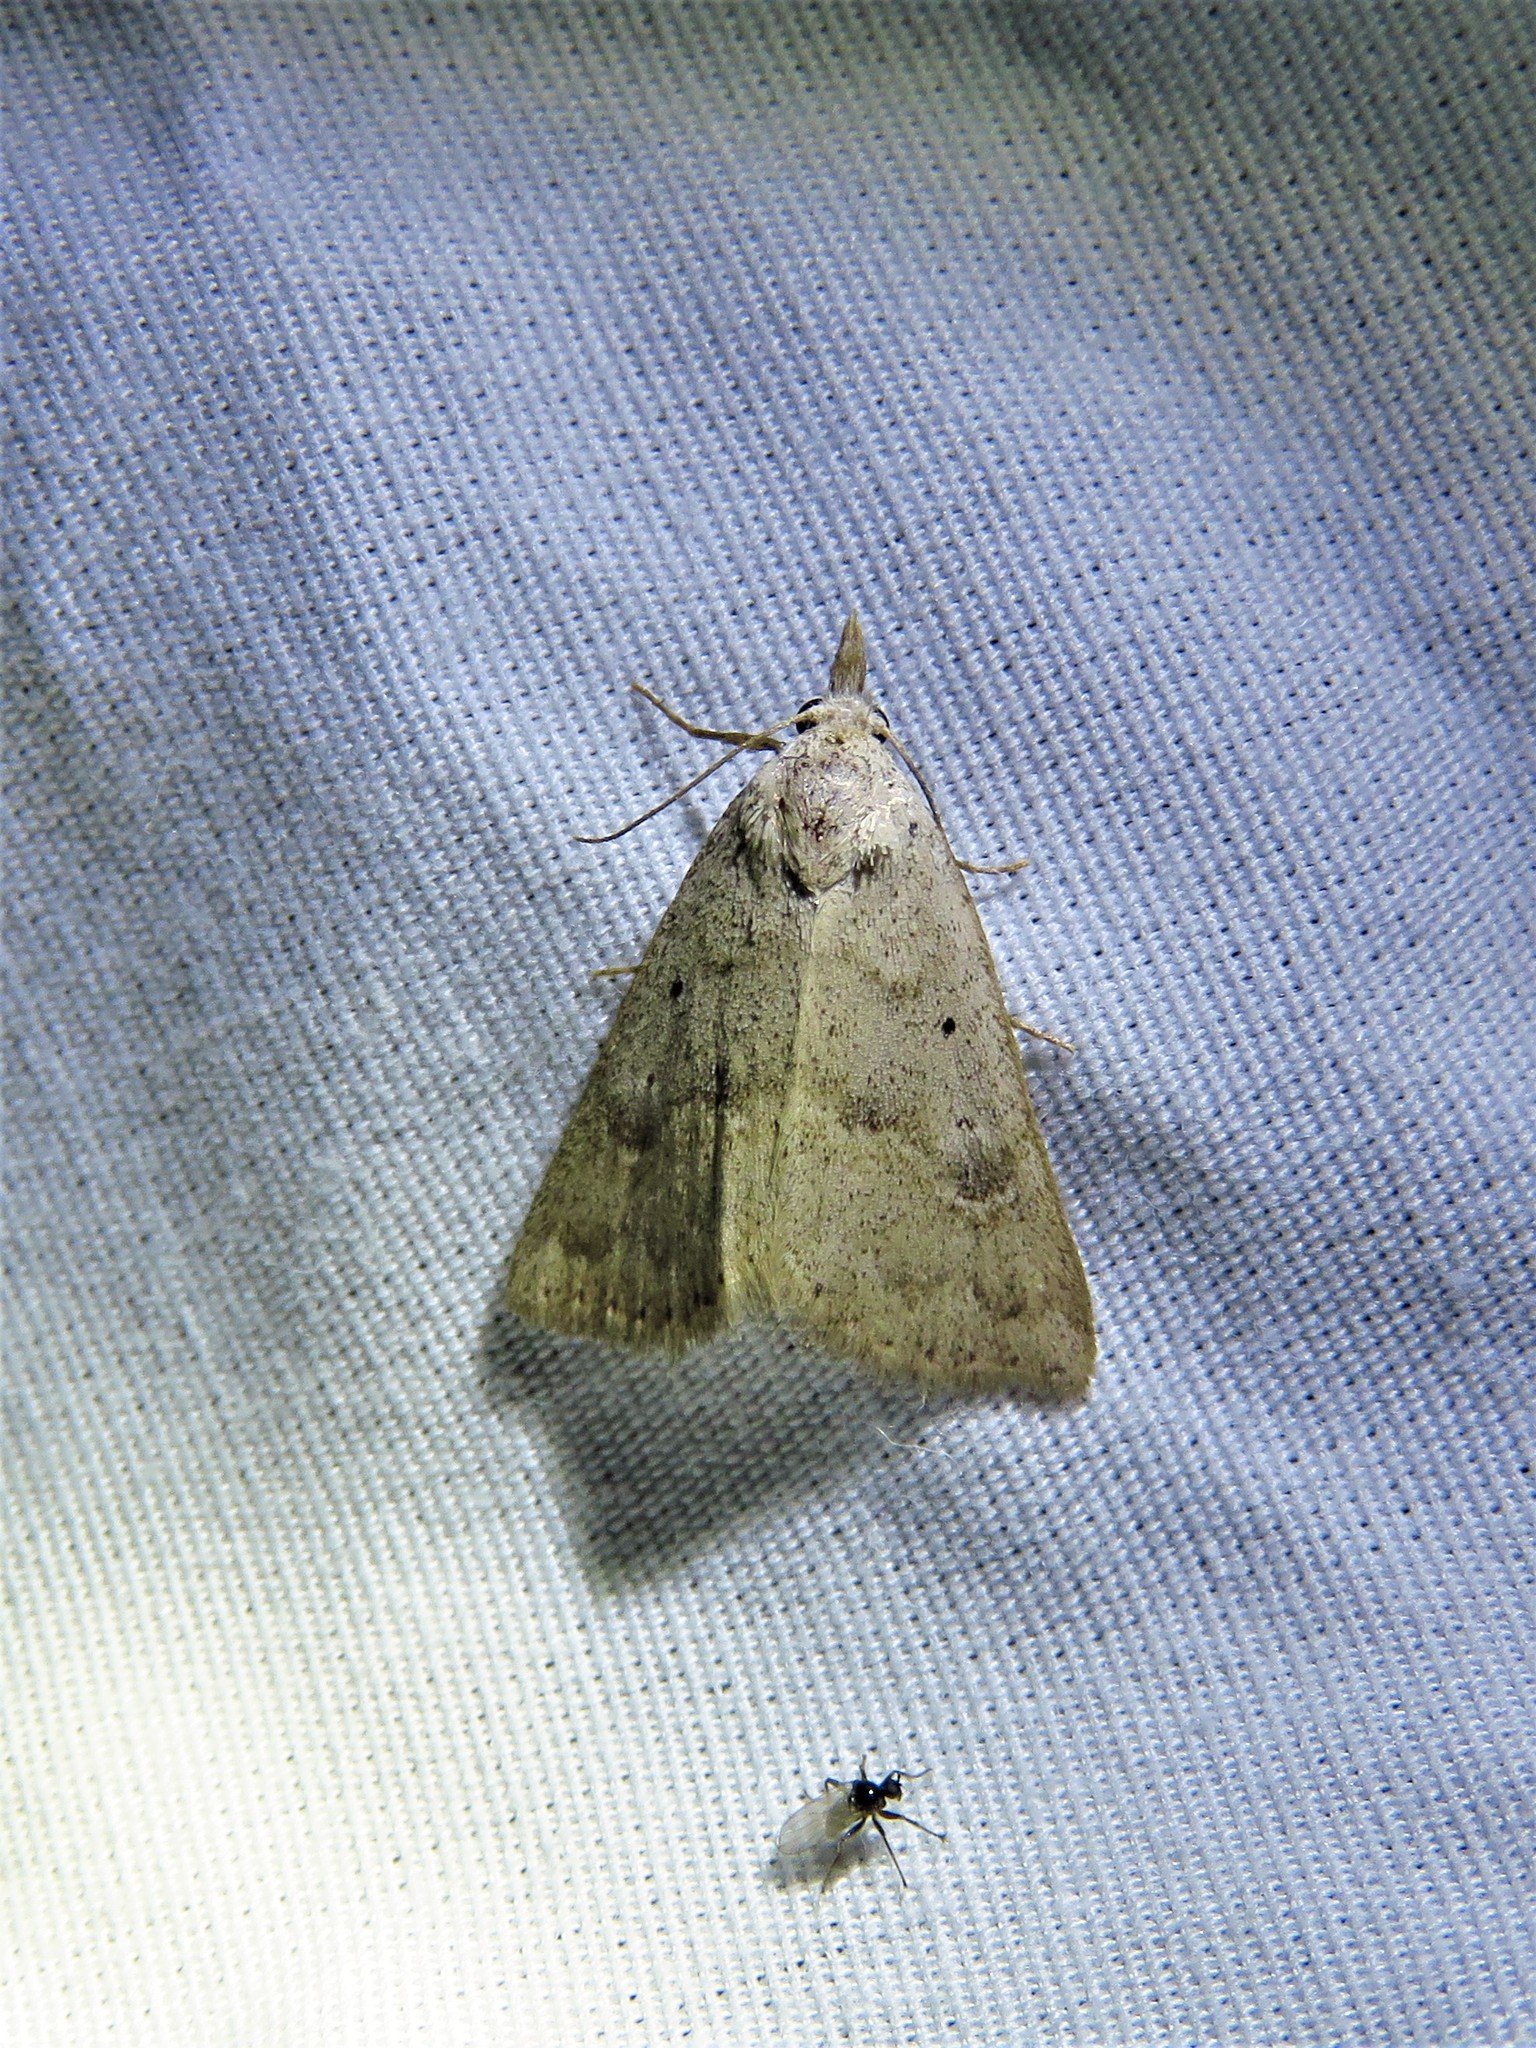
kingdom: Animalia
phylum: Arthropoda
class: Insecta
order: Lepidoptera
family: Erebidae
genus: Pseudorgyia
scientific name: Pseudorgyia versuta
